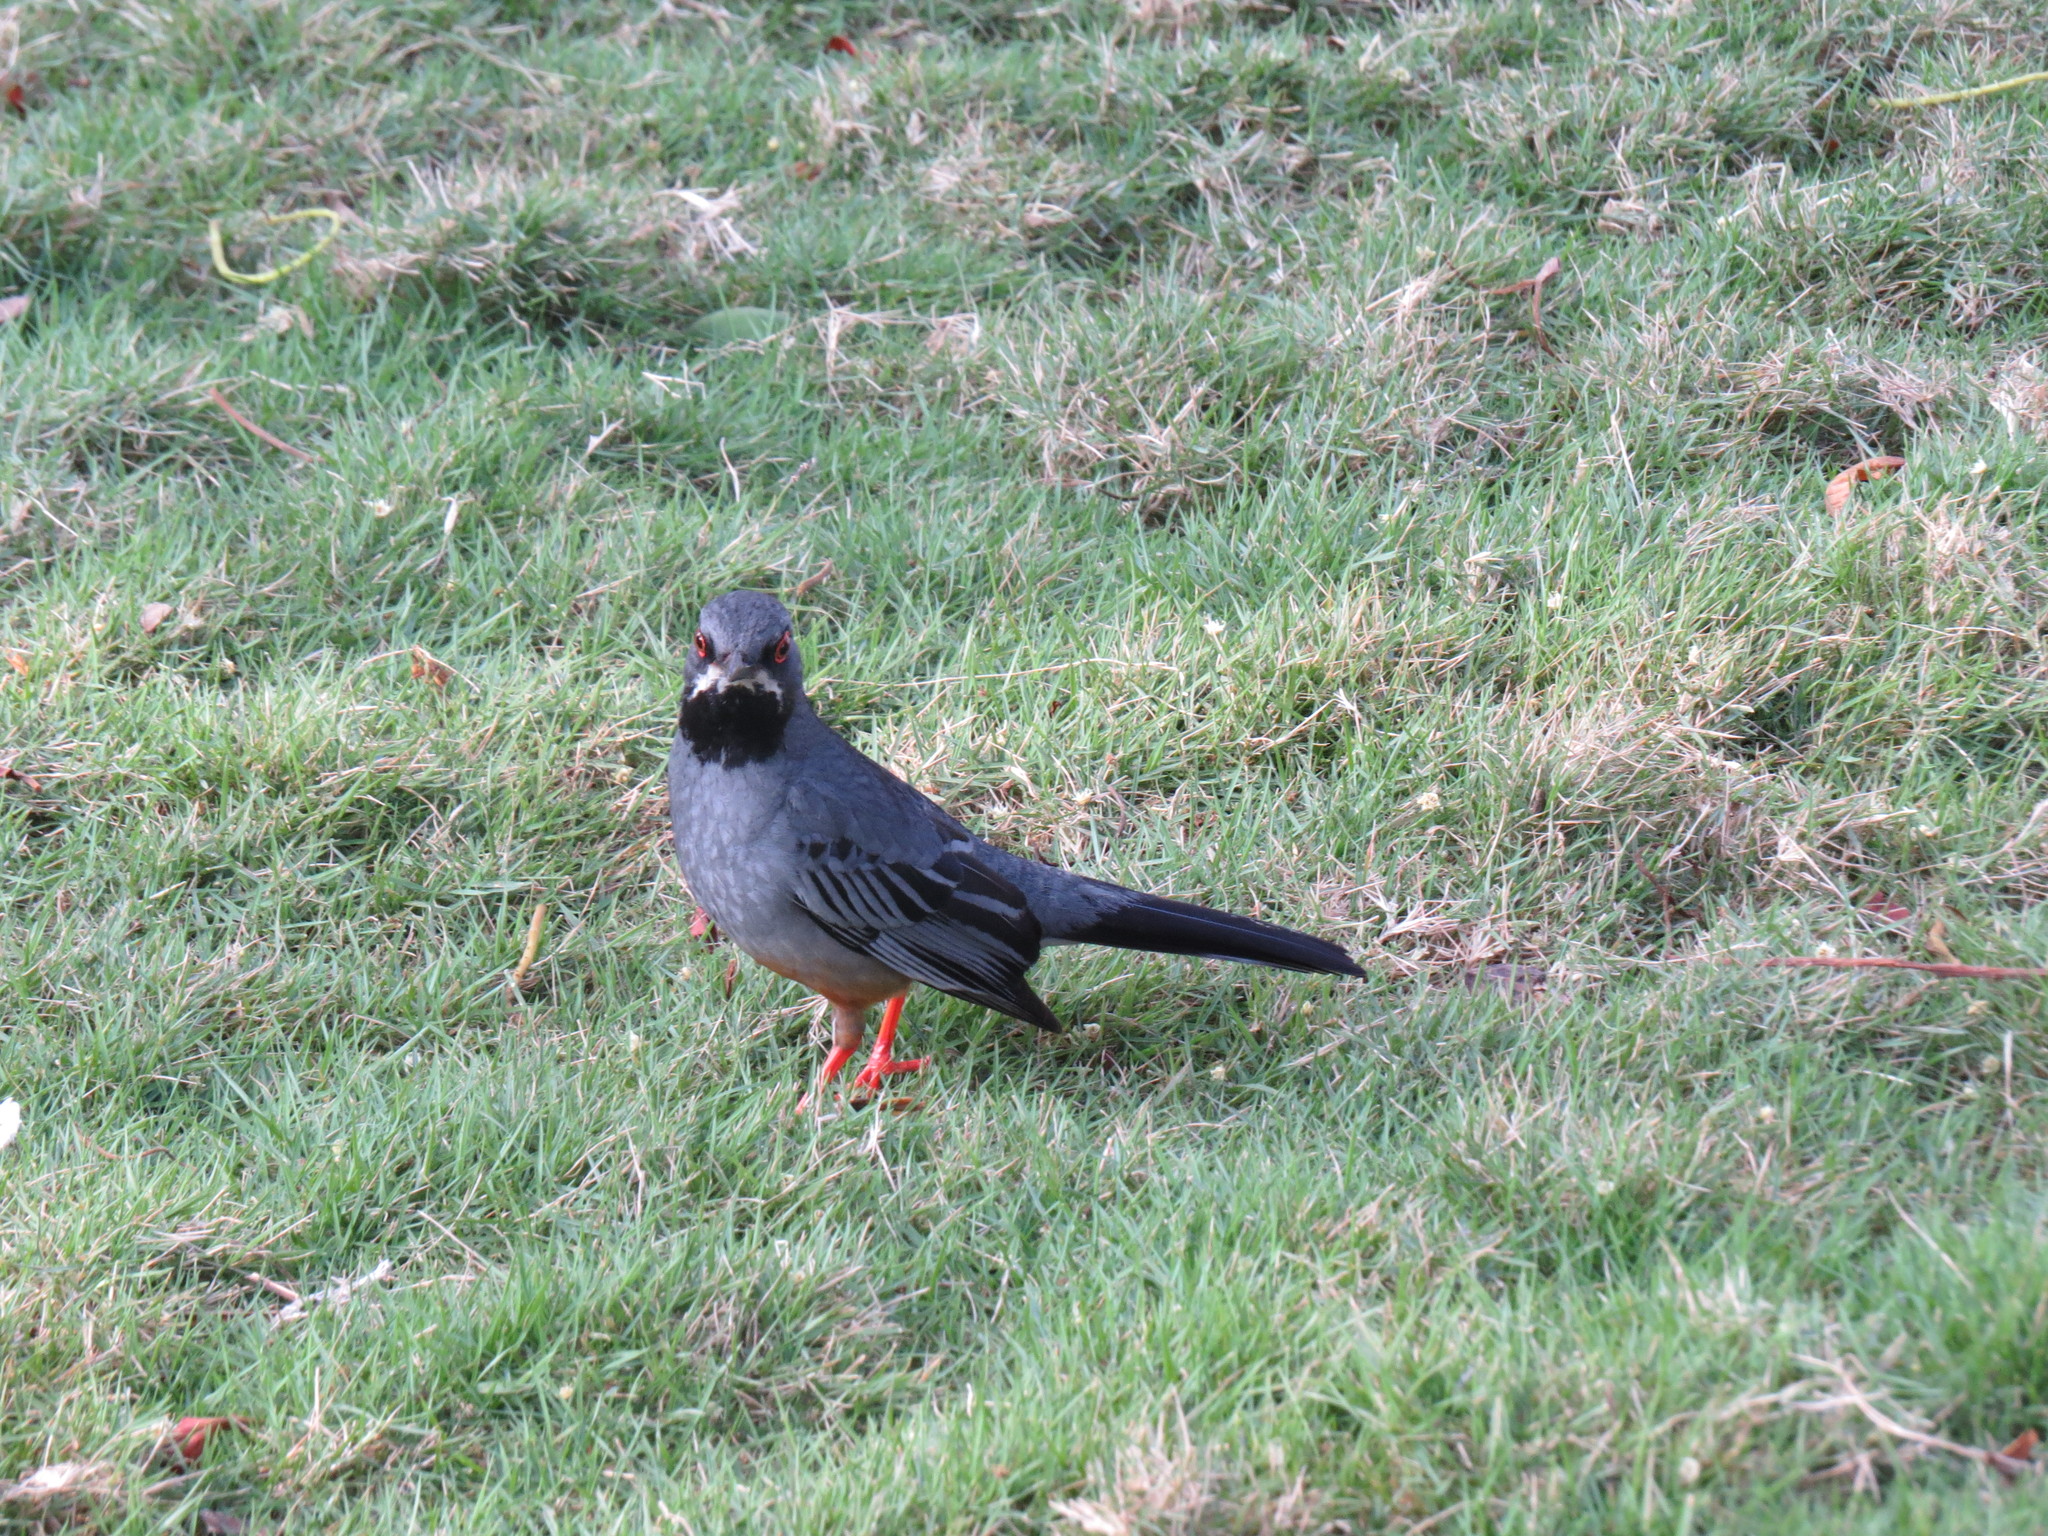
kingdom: Animalia
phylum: Chordata
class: Aves
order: Passeriformes
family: Turdidae
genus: Turdus
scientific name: Turdus plumbeus
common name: Red-legged thrush
